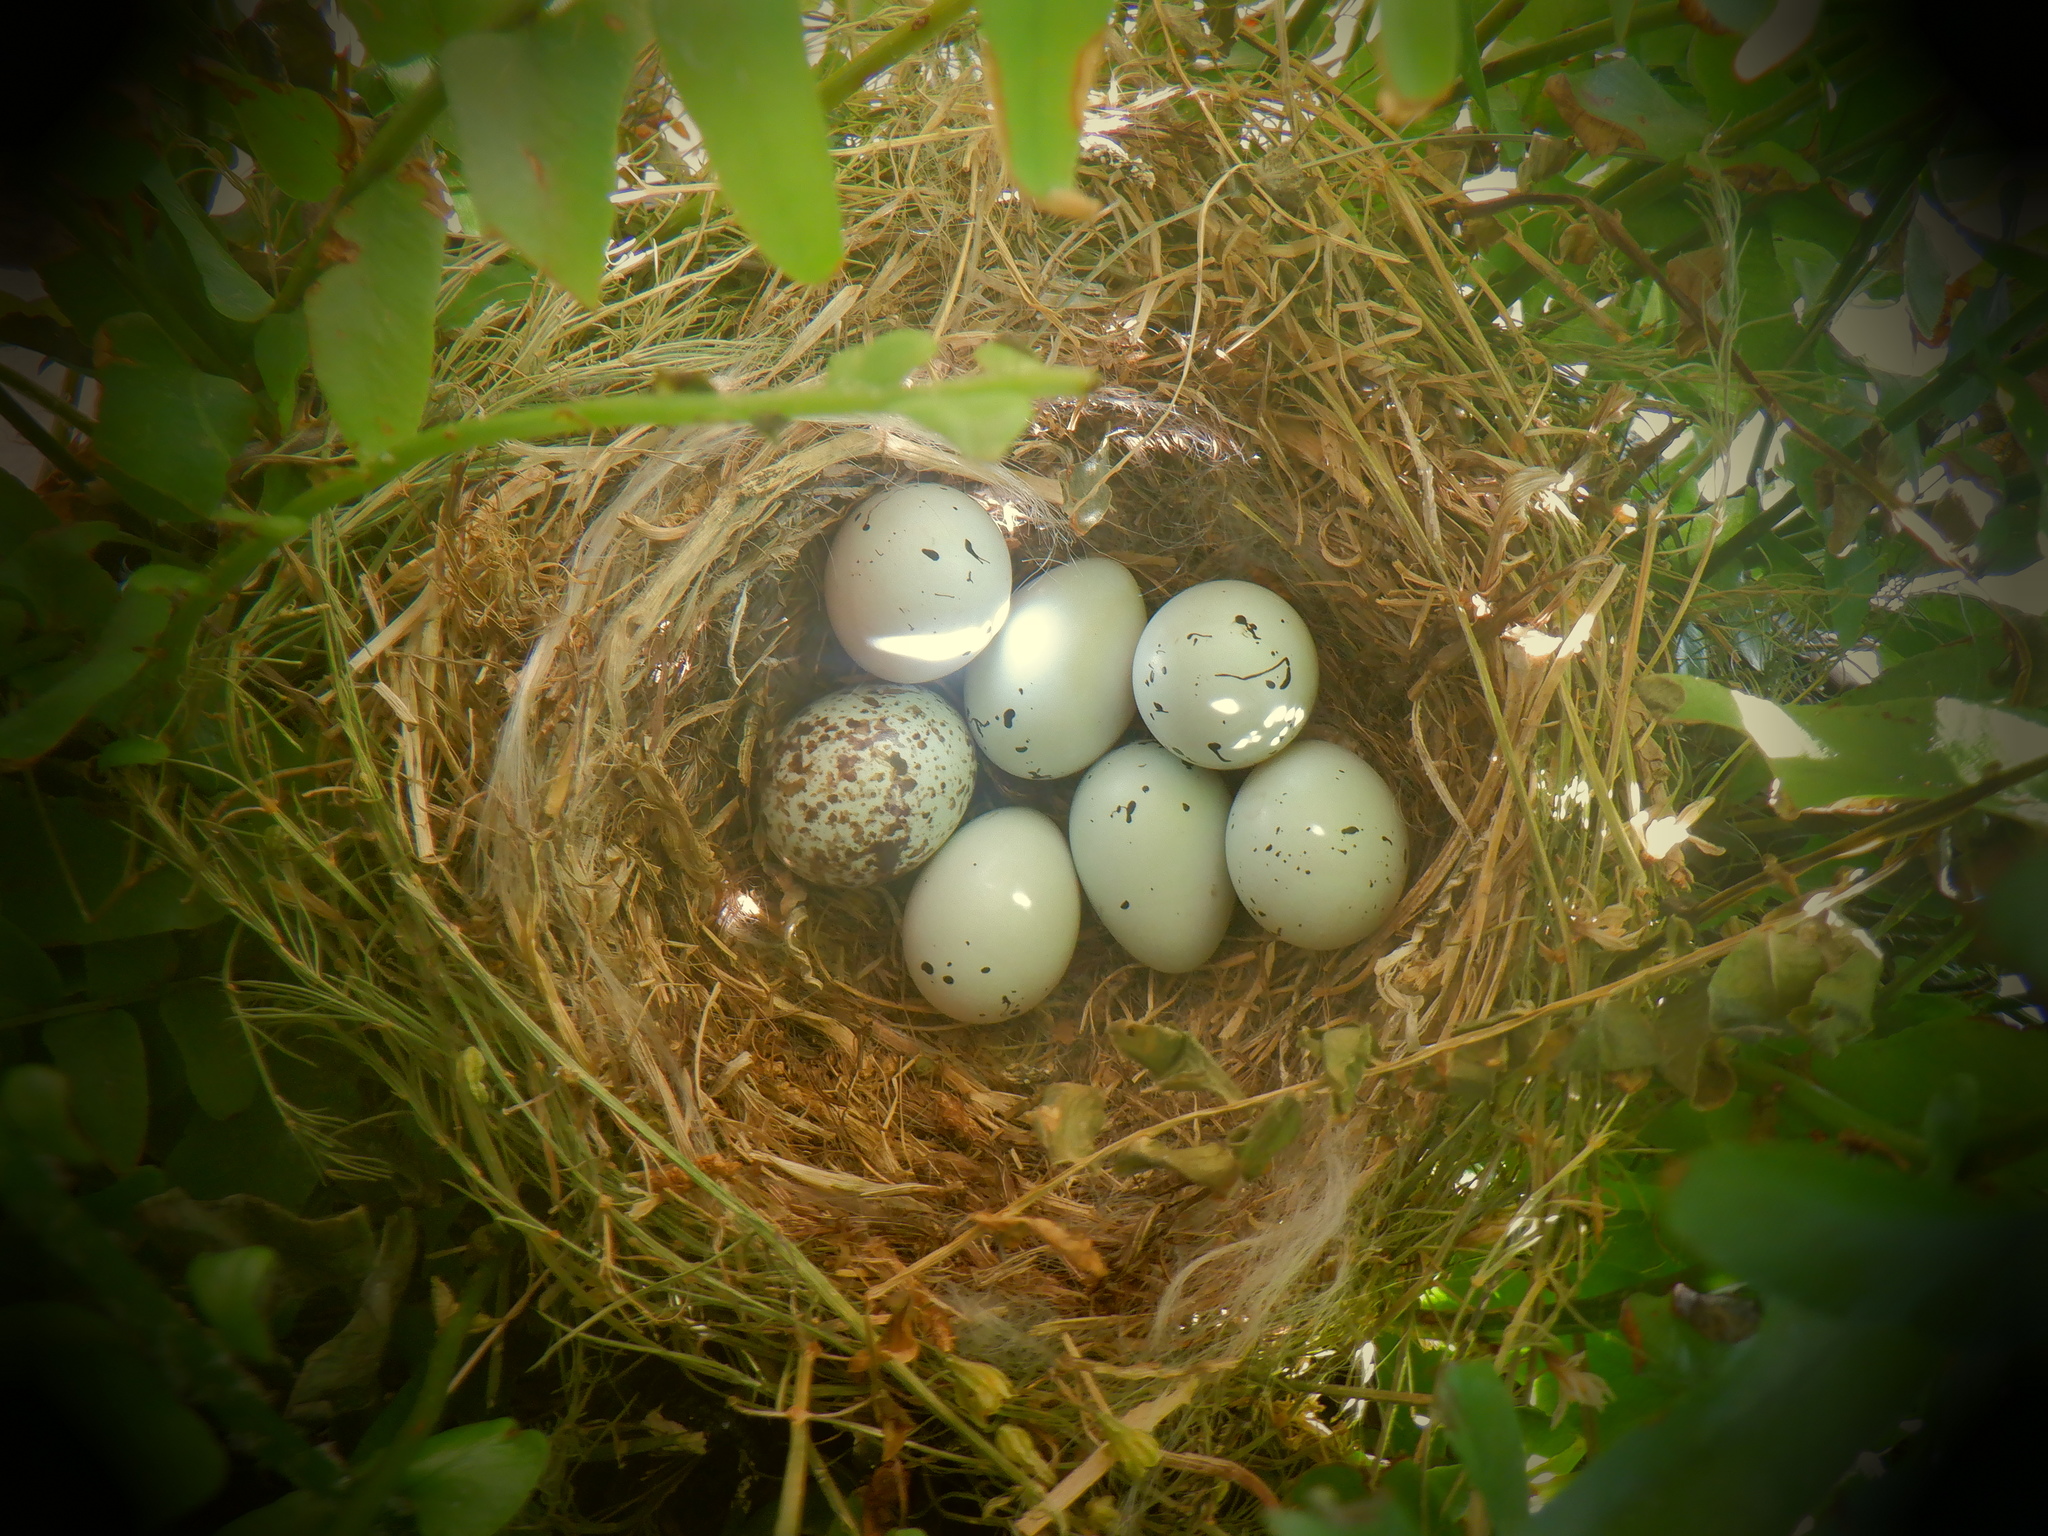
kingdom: Animalia
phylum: Chordata
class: Aves
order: Passeriformes
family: Fringillidae
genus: Haemorhous
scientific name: Haemorhous mexicanus
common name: House finch
